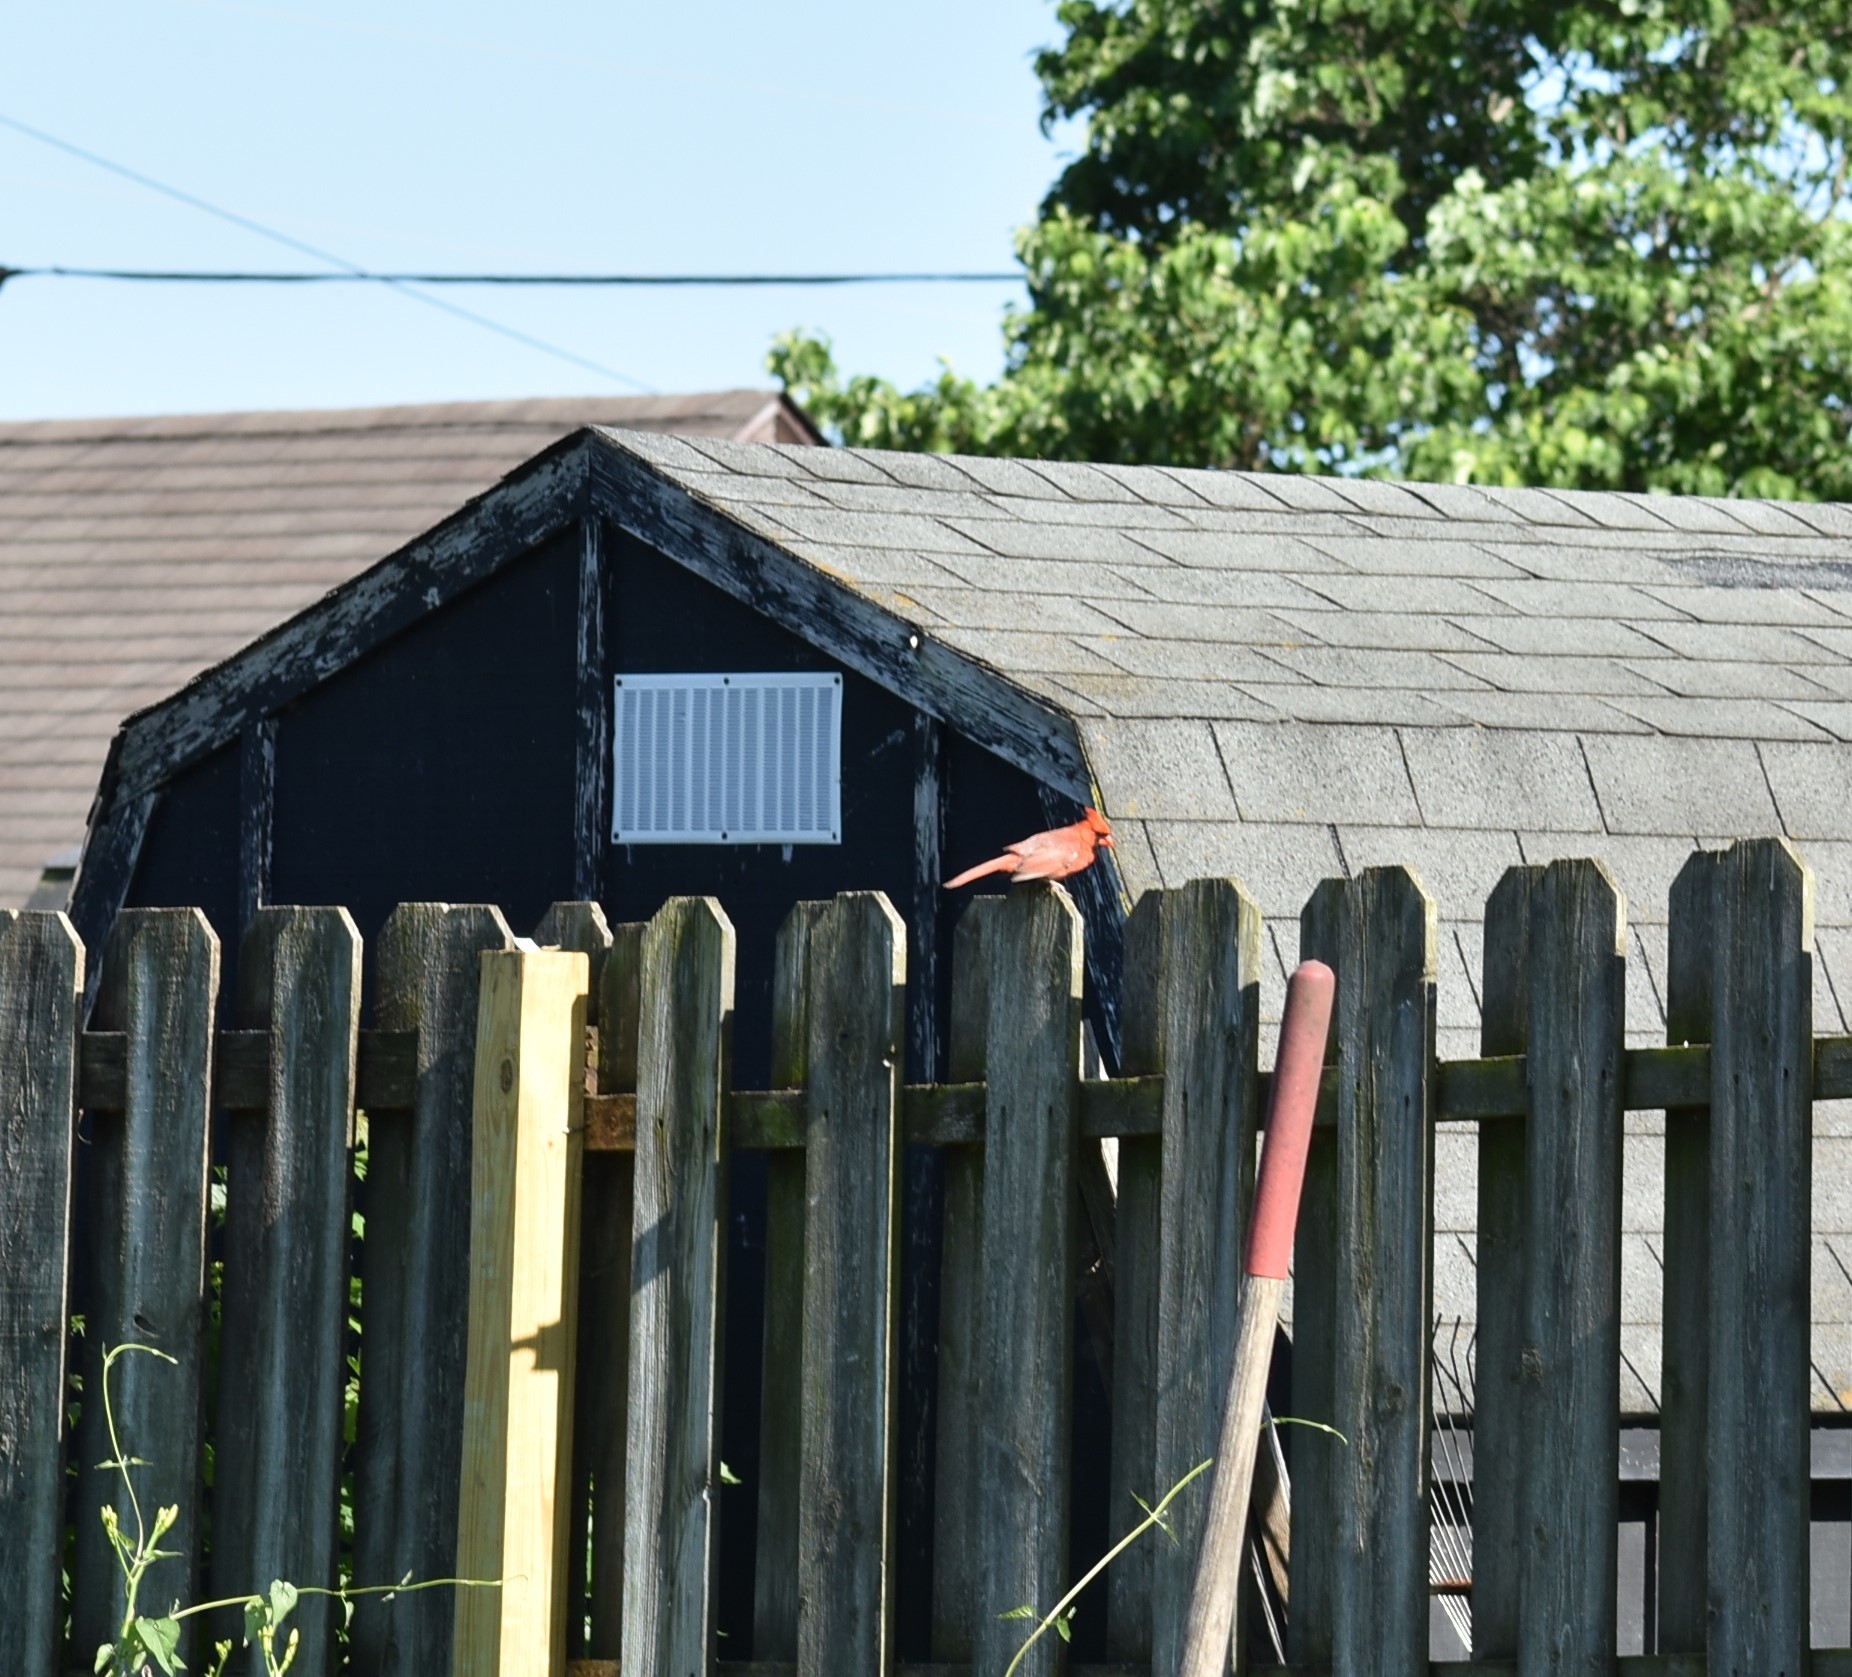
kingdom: Animalia
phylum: Chordata
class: Aves
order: Passeriformes
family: Cardinalidae
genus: Cardinalis
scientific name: Cardinalis cardinalis
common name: Northern cardinal
